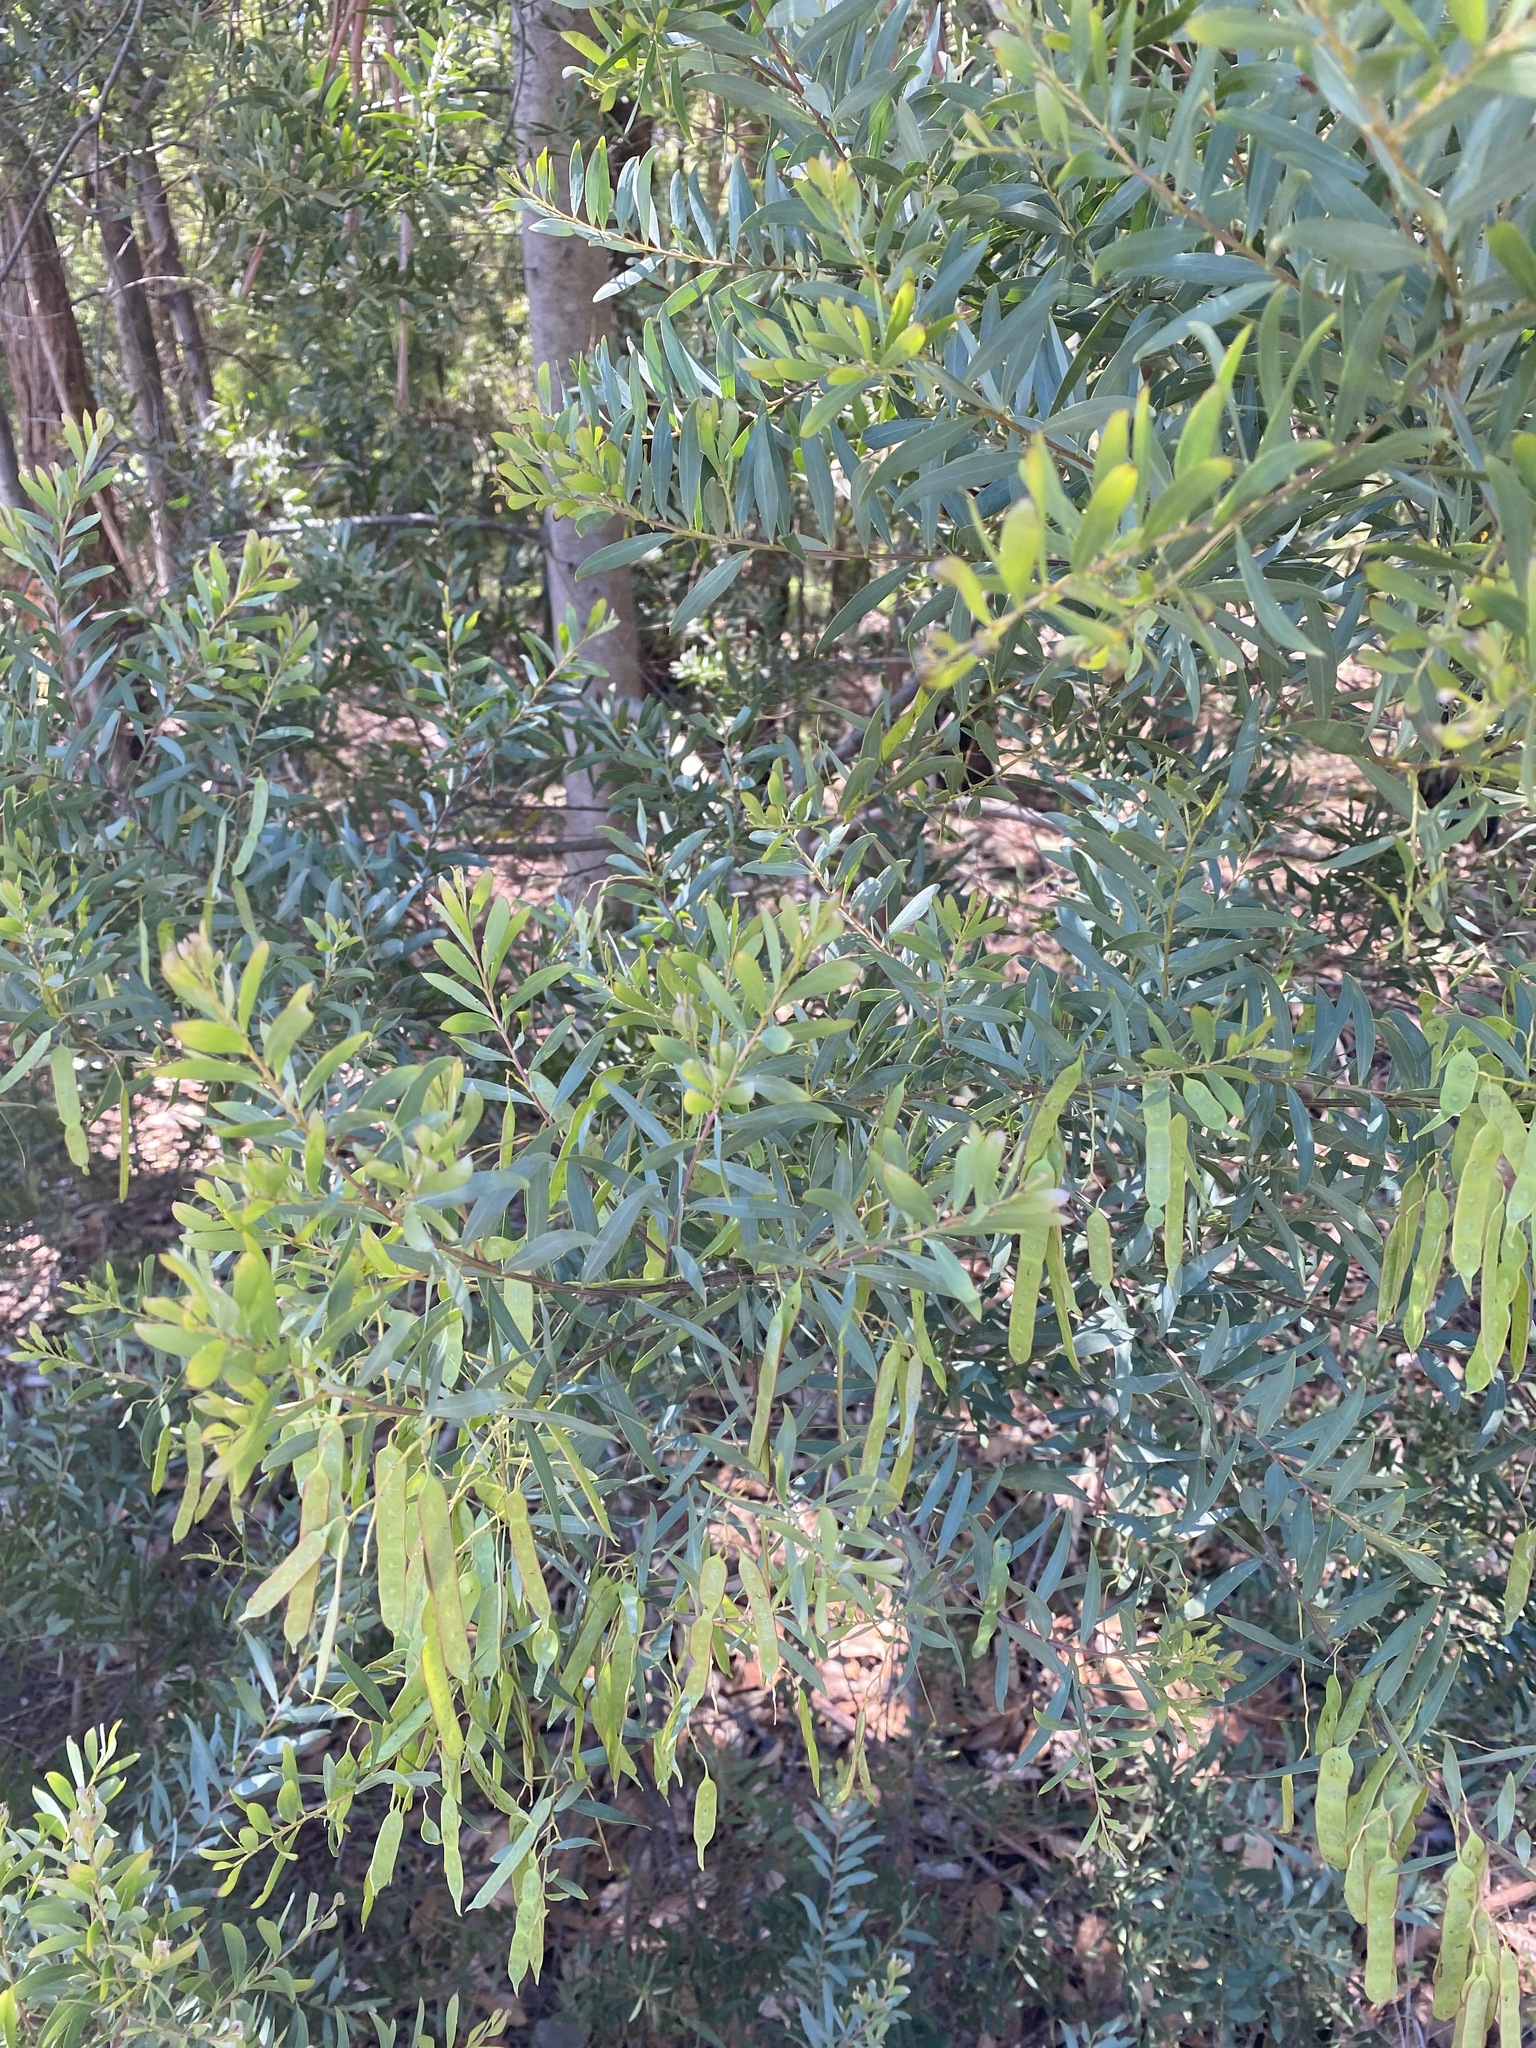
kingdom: Plantae
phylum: Tracheophyta
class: Magnoliopsida
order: Fabales
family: Fabaceae
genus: Acacia
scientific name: Acacia prominens
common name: Gosford wattle
